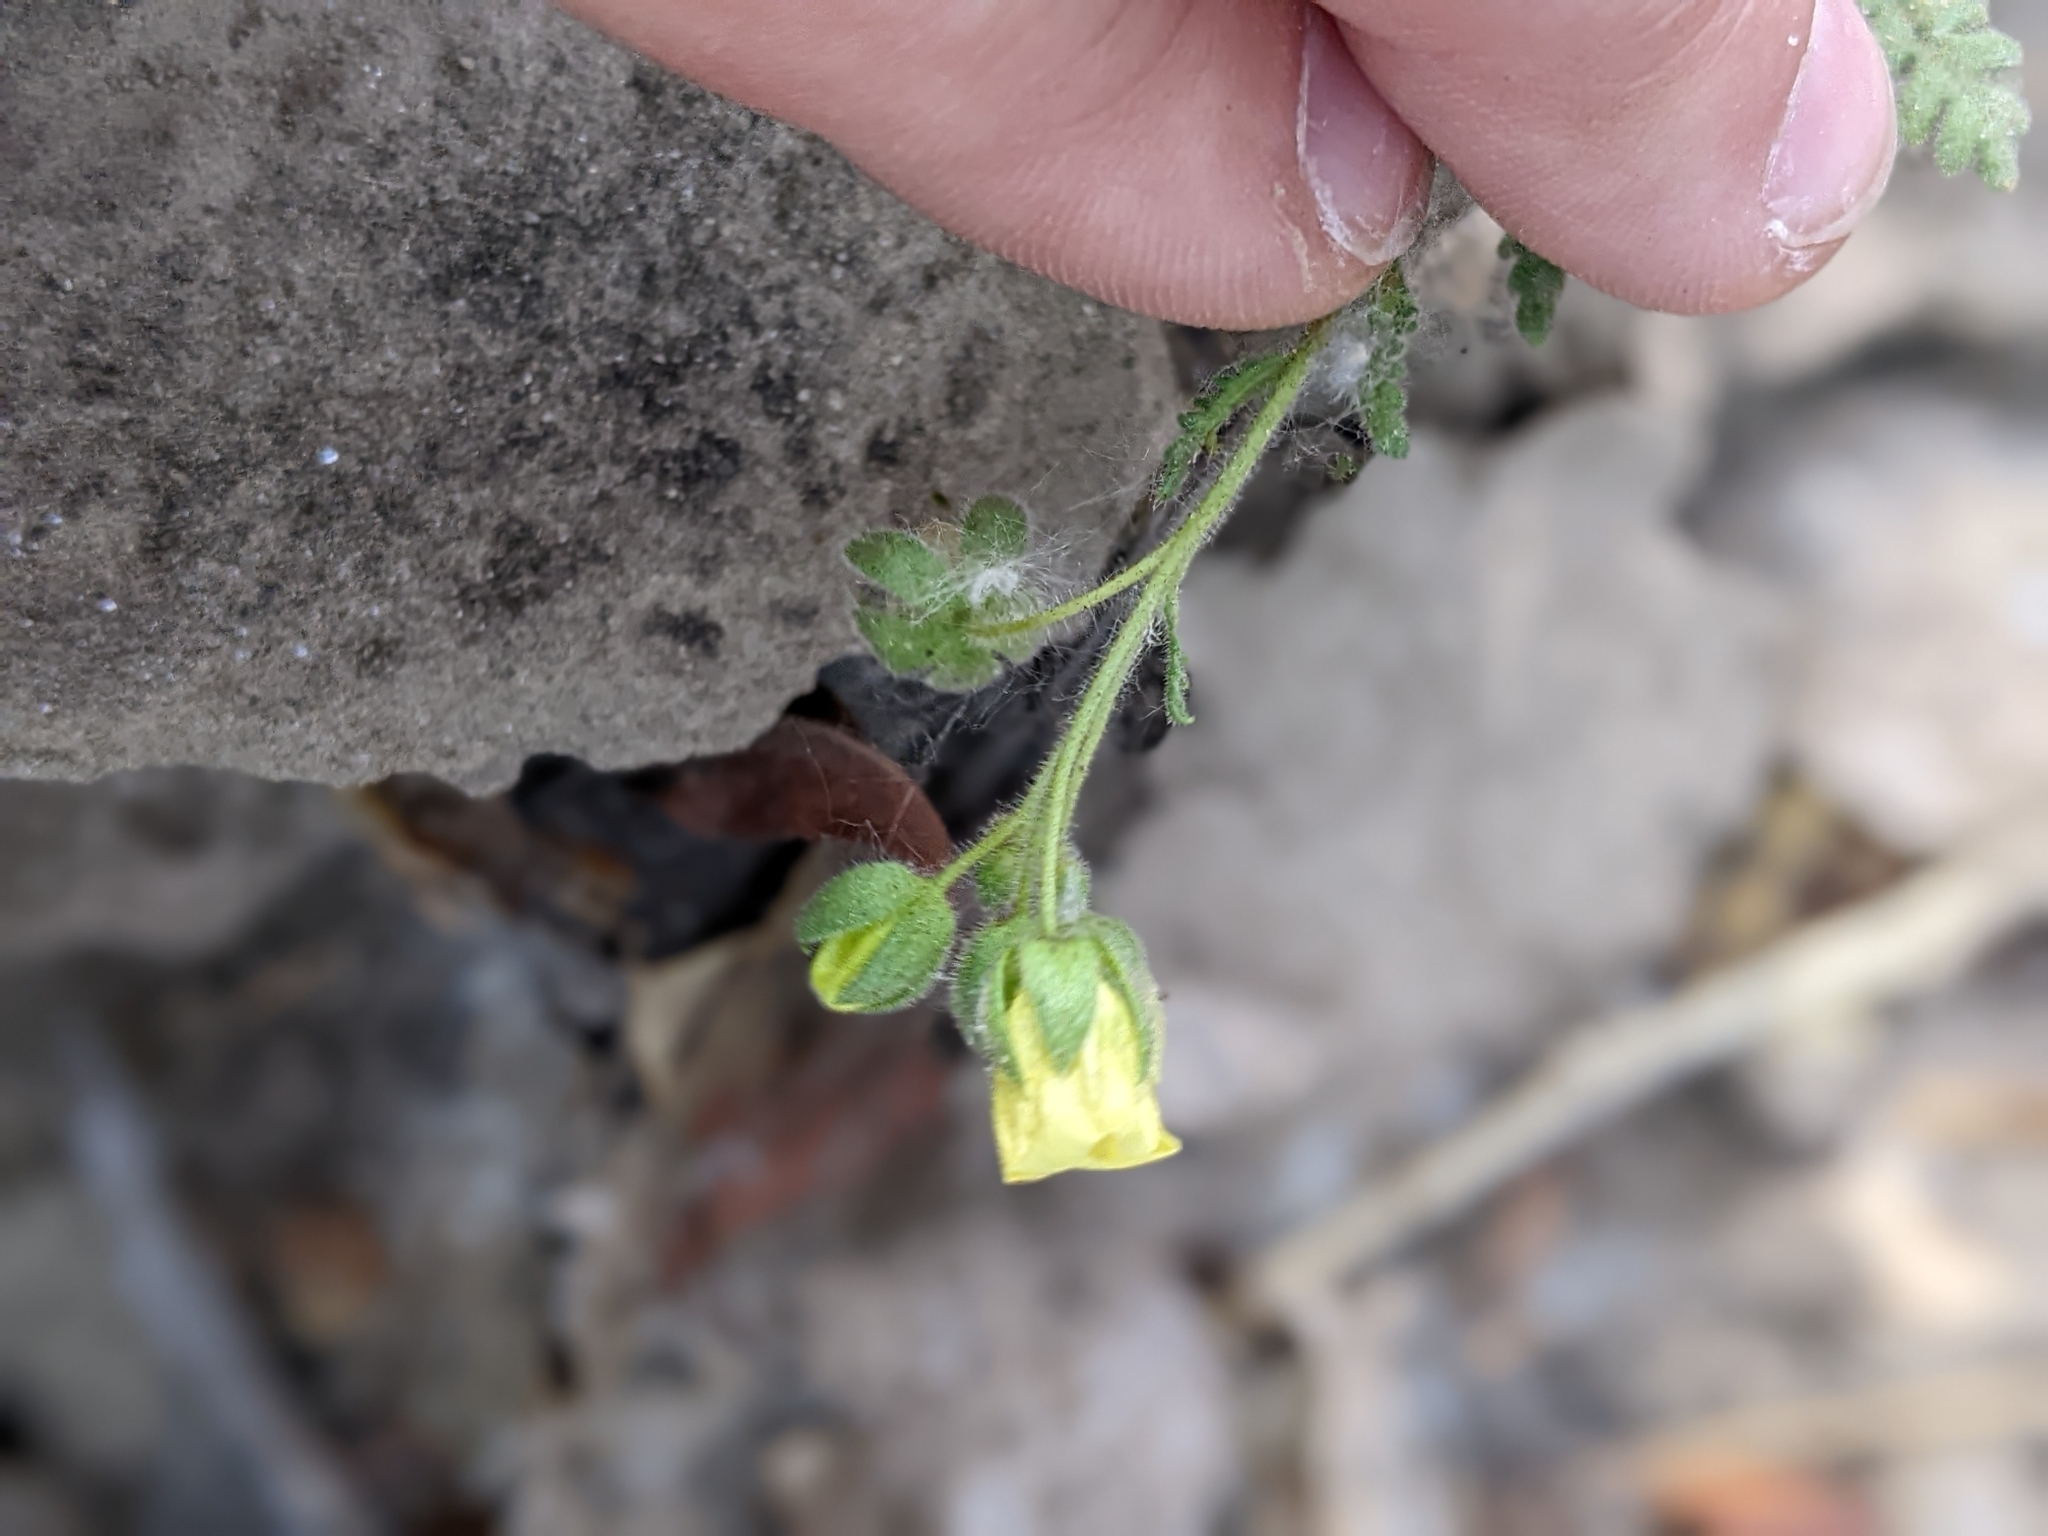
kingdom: Plantae
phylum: Tracheophyta
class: Magnoliopsida
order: Boraginales
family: Hydrophyllaceae
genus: Emmenanthe
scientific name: Emmenanthe penduliflora
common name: Whispering-bells
